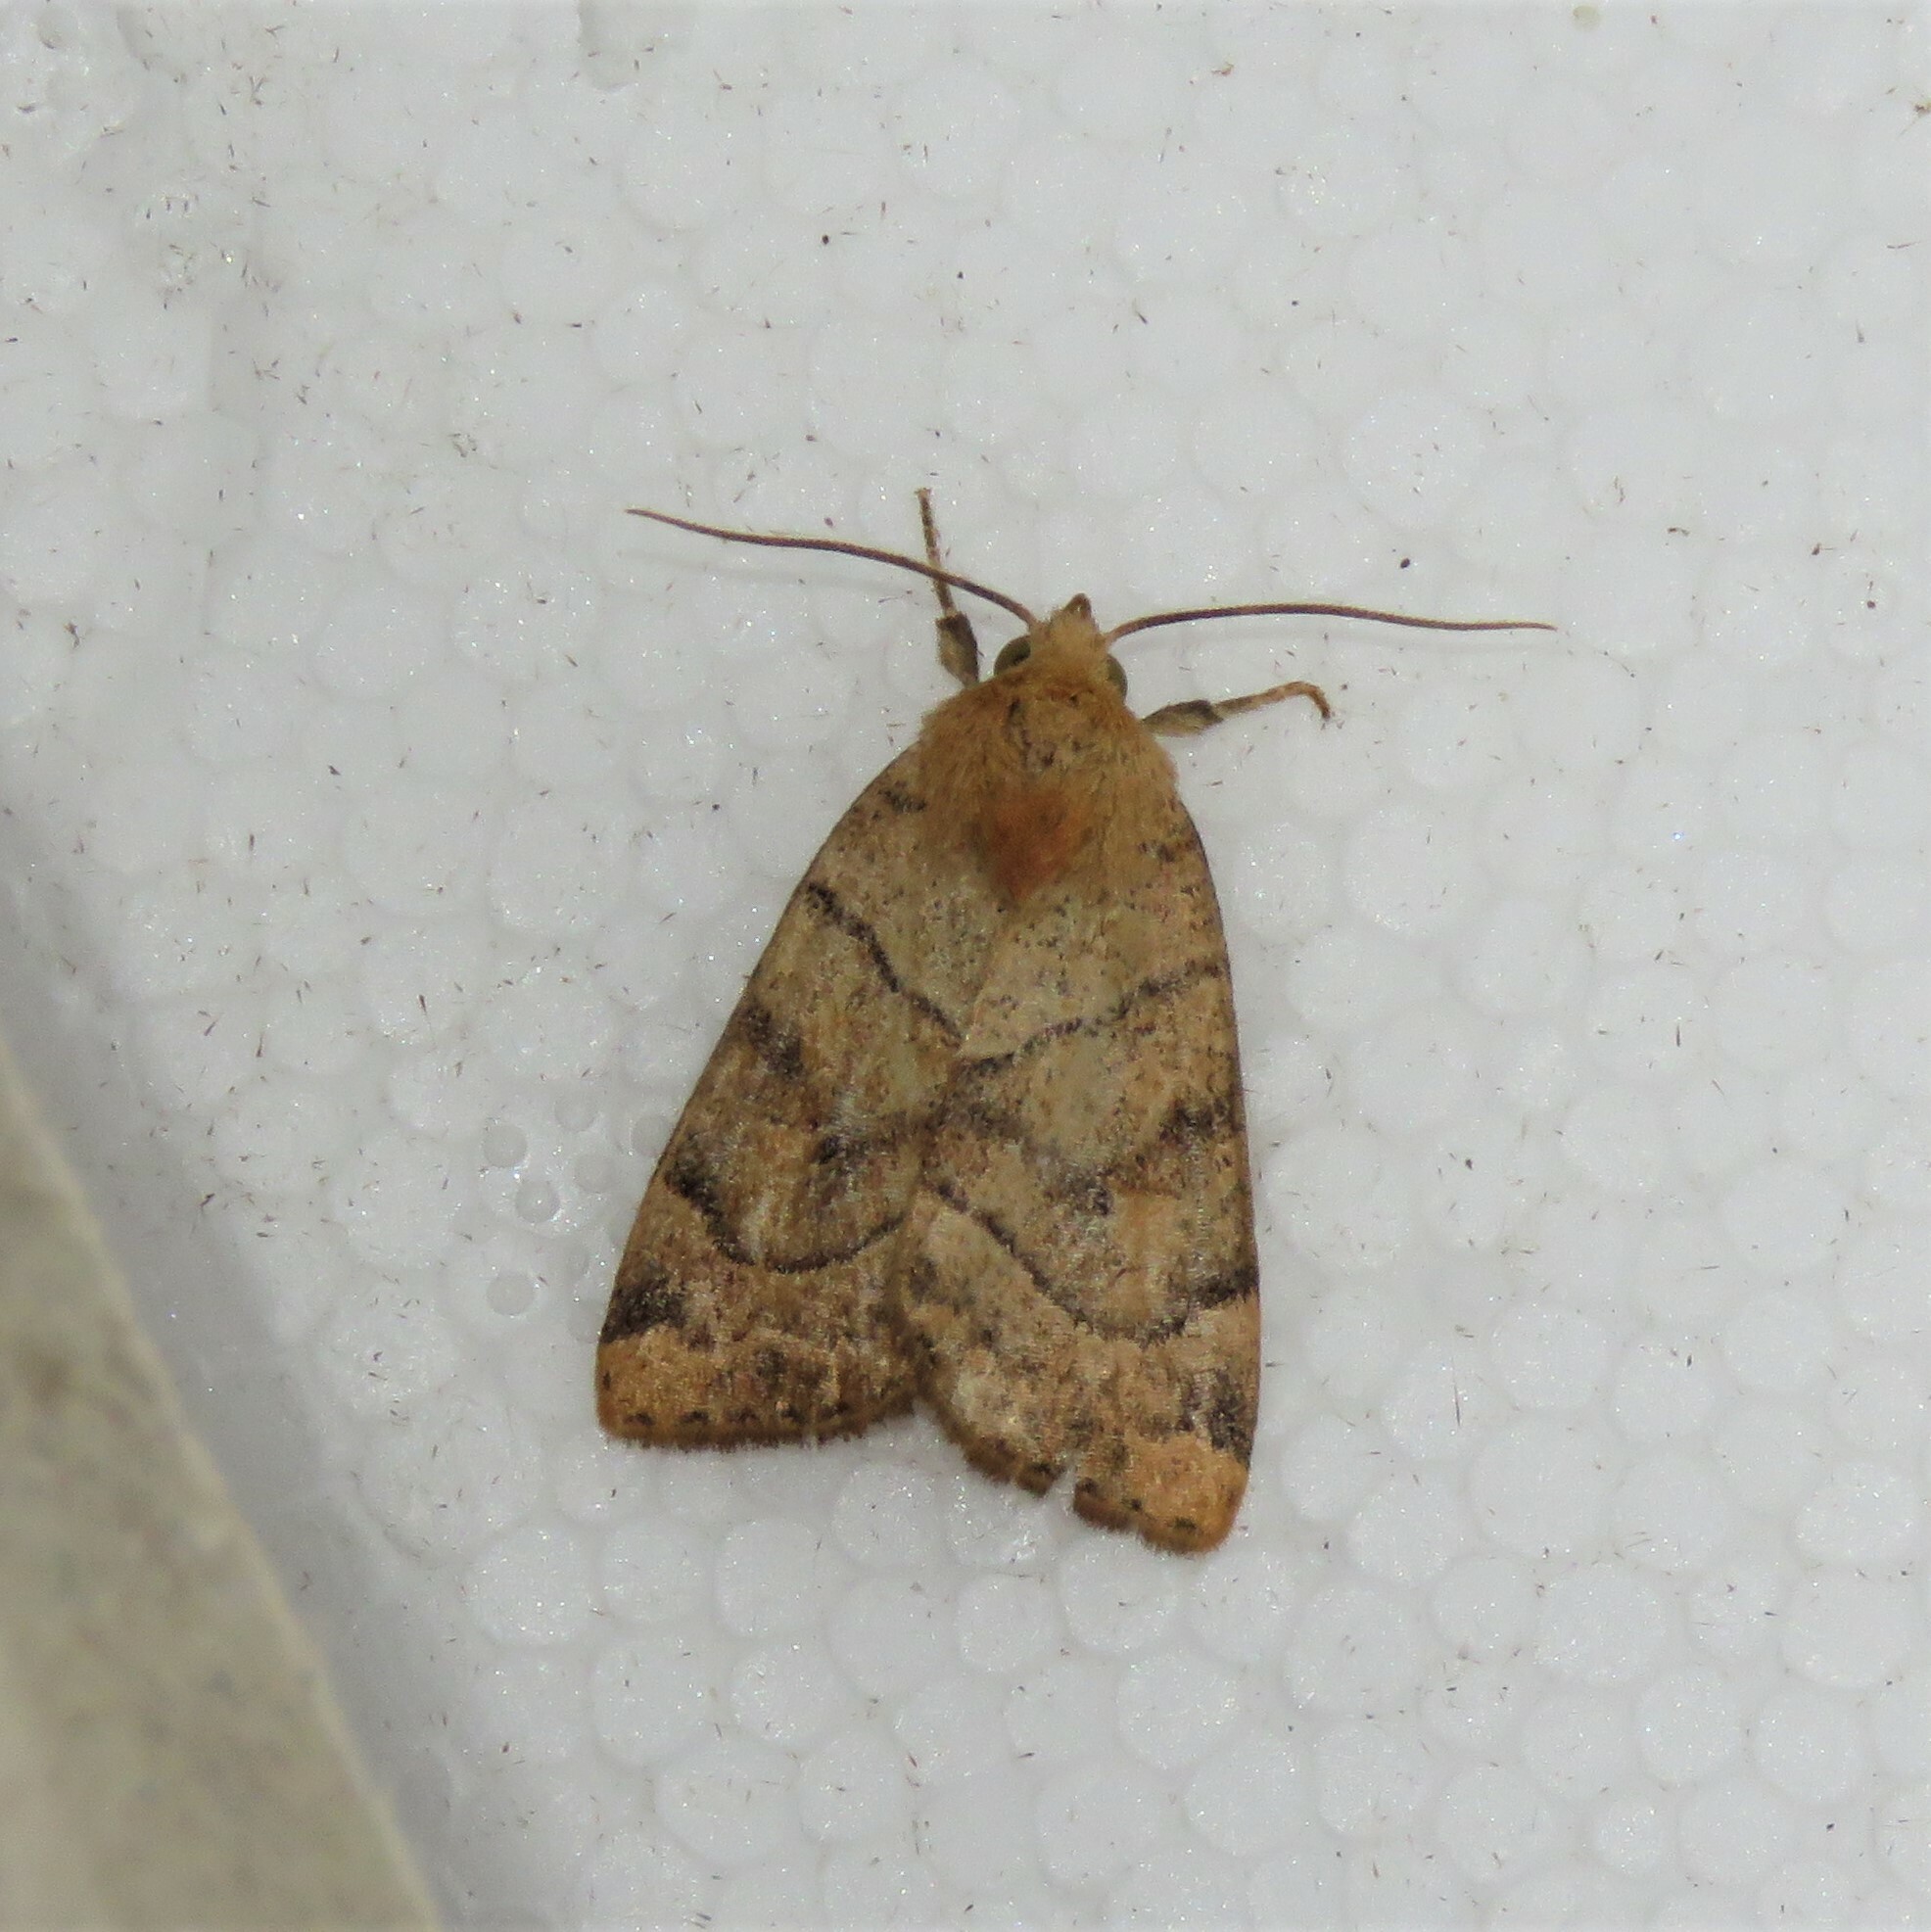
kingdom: Animalia
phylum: Arthropoda
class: Insecta
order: Lepidoptera
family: Noctuidae
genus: Cosmia
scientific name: Cosmia trapezina
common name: Dun-bar
